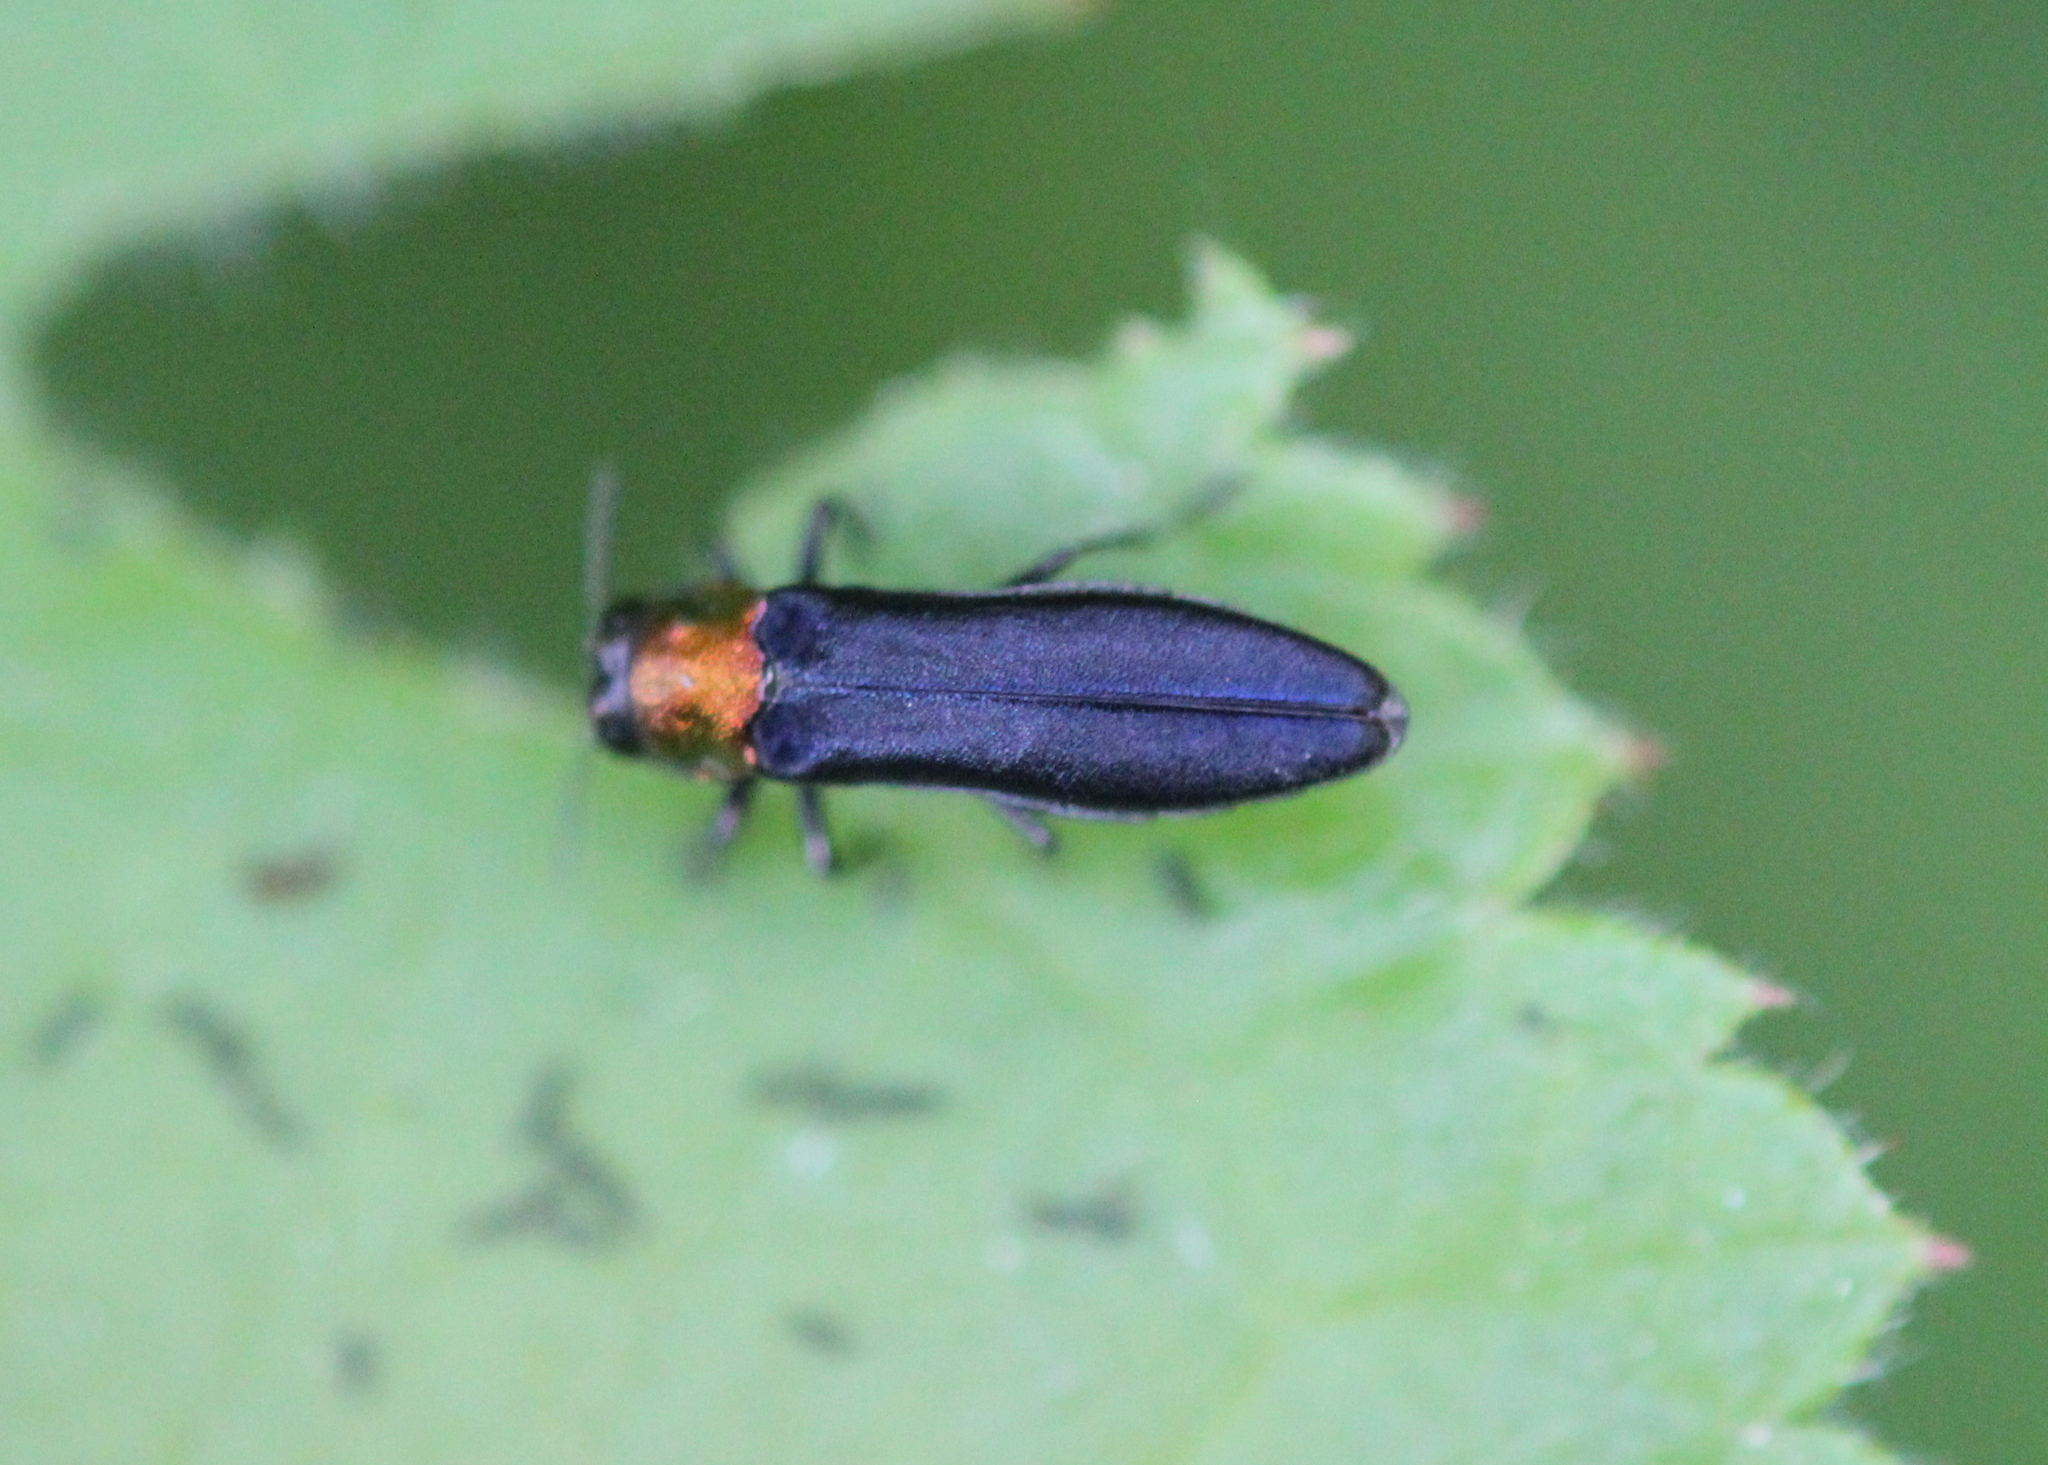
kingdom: Animalia
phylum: Arthropoda
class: Insecta
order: Coleoptera
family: Buprestidae
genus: Agrilus
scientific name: Agrilus ruficollis
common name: Red-necked cane borer beetle
